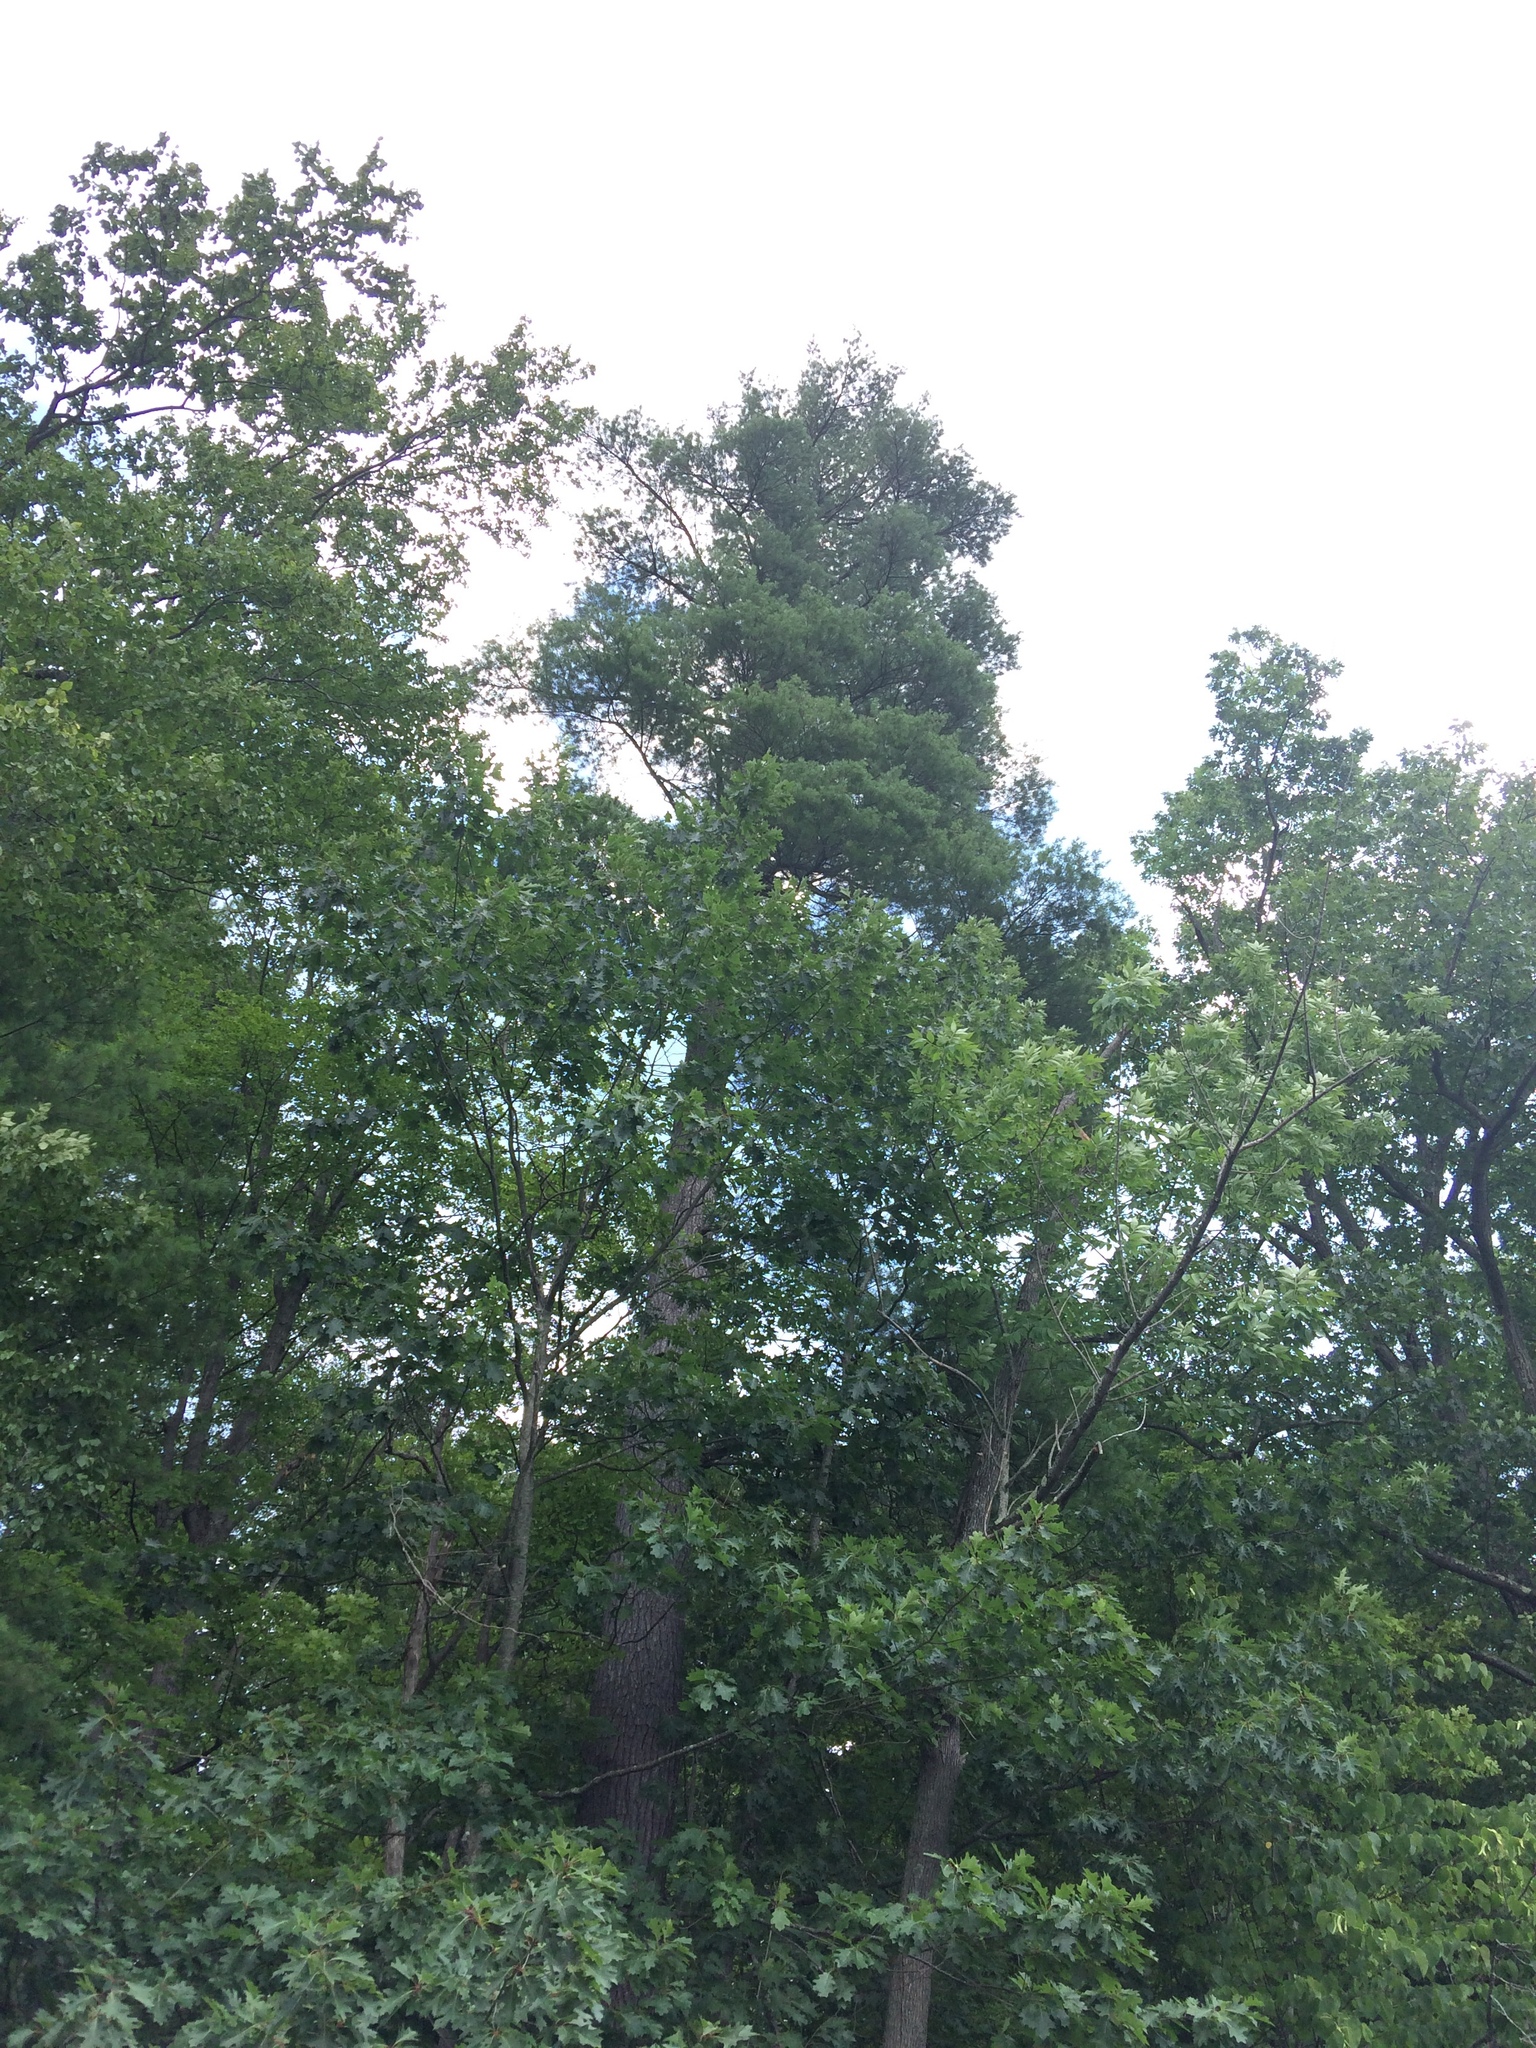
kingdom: Plantae
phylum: Tracheophyta
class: Pinopsida
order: Pinales
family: Pinaceae
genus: Pinus
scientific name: Pinus strobus
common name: Weymouth pine
